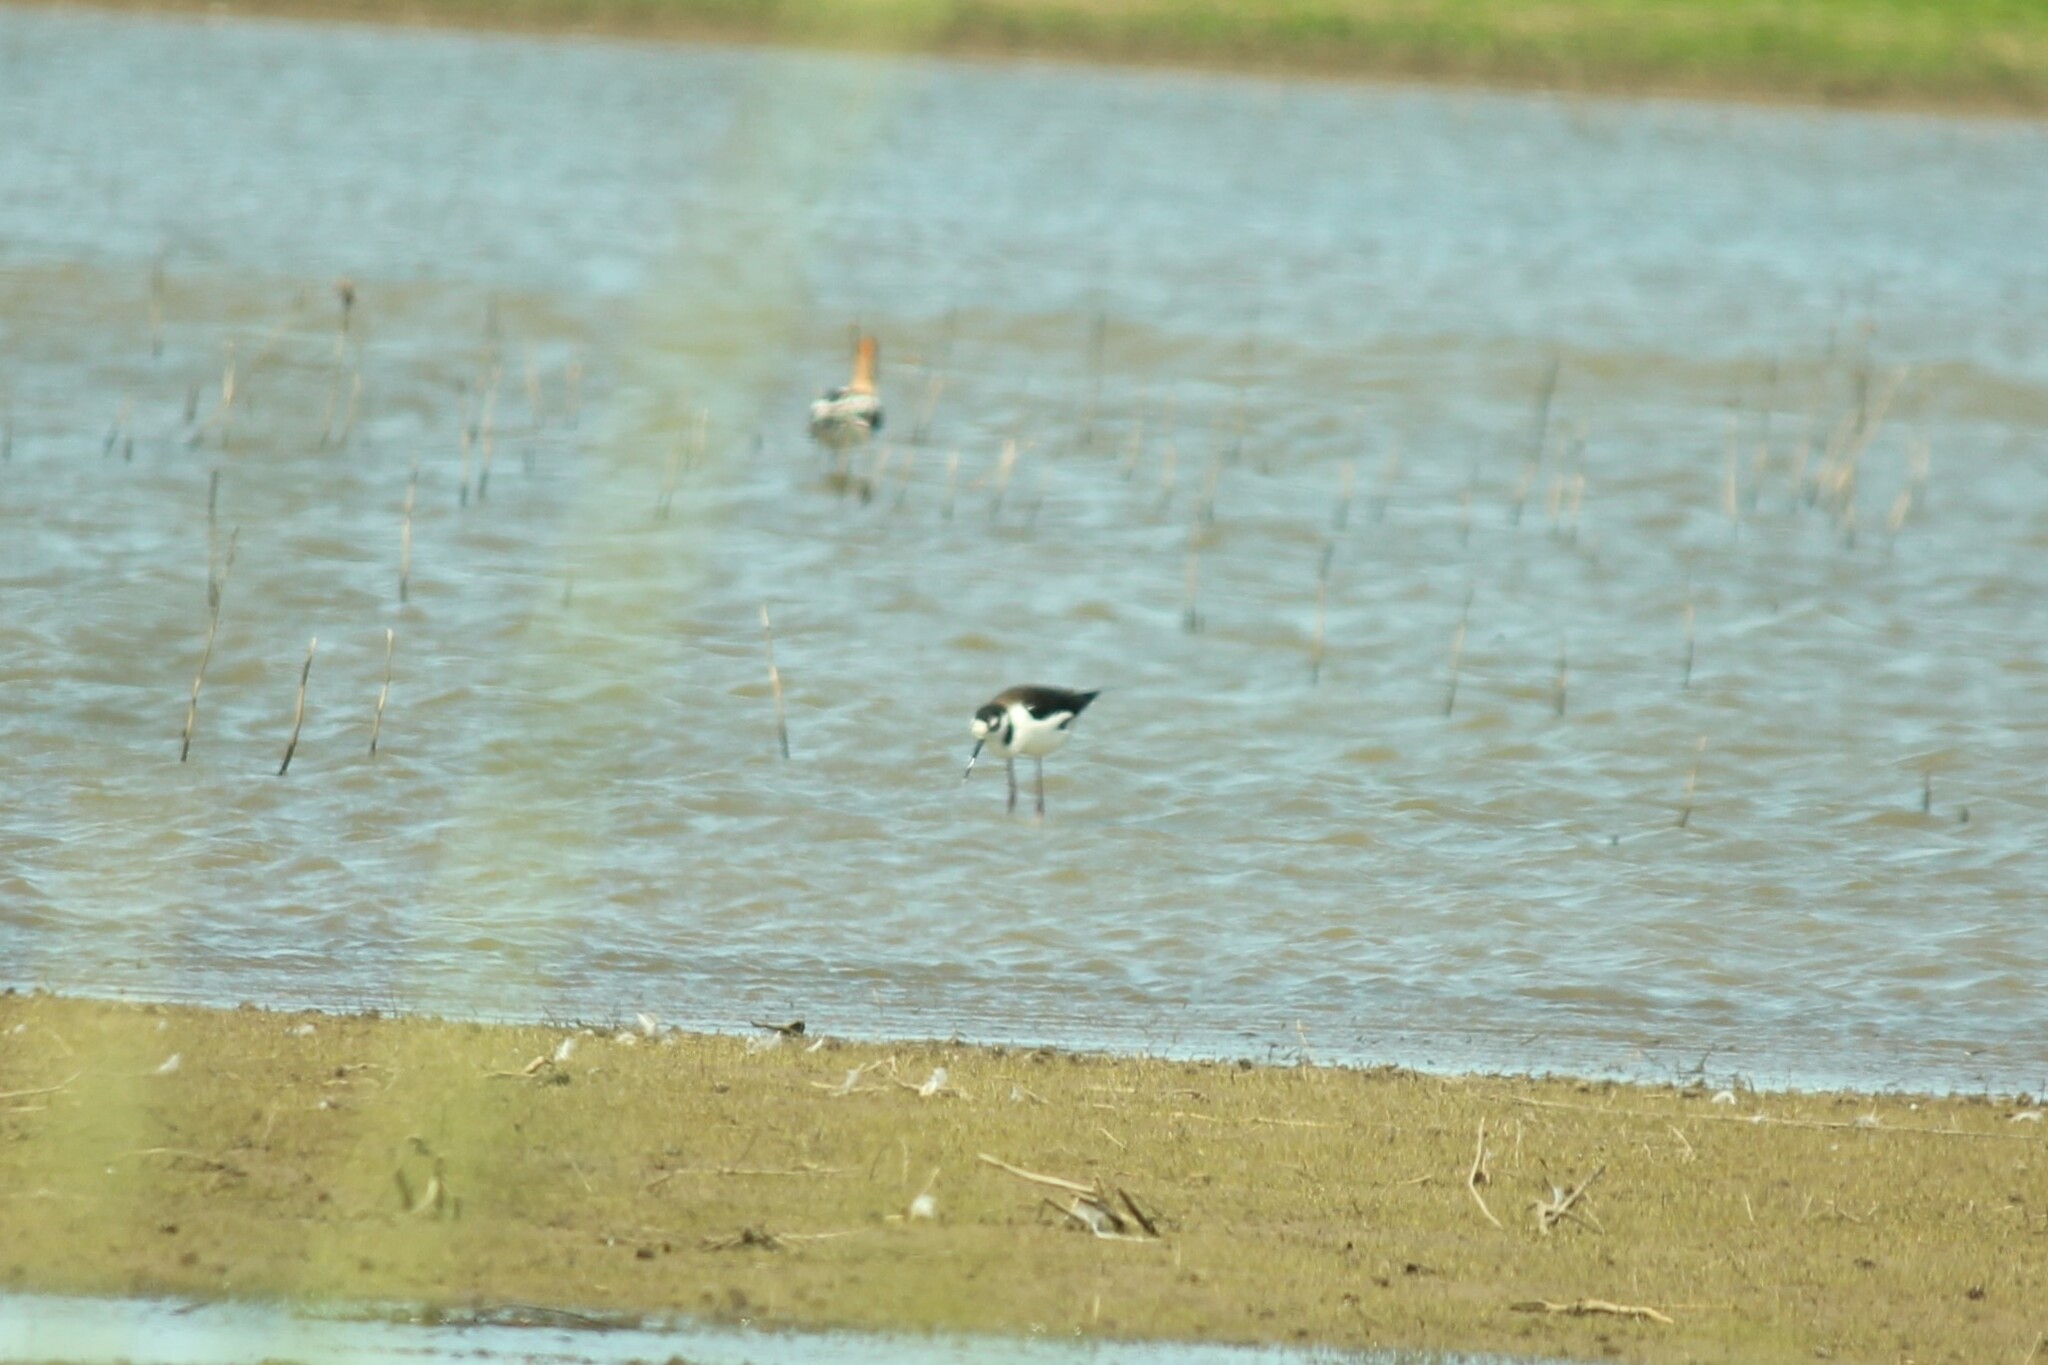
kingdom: Animalia
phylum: Chordata
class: Aves
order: Charadriiformes
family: Recurvirostridae
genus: Himantopus
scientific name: Himantopus mexicanus
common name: Black-necked stilt
